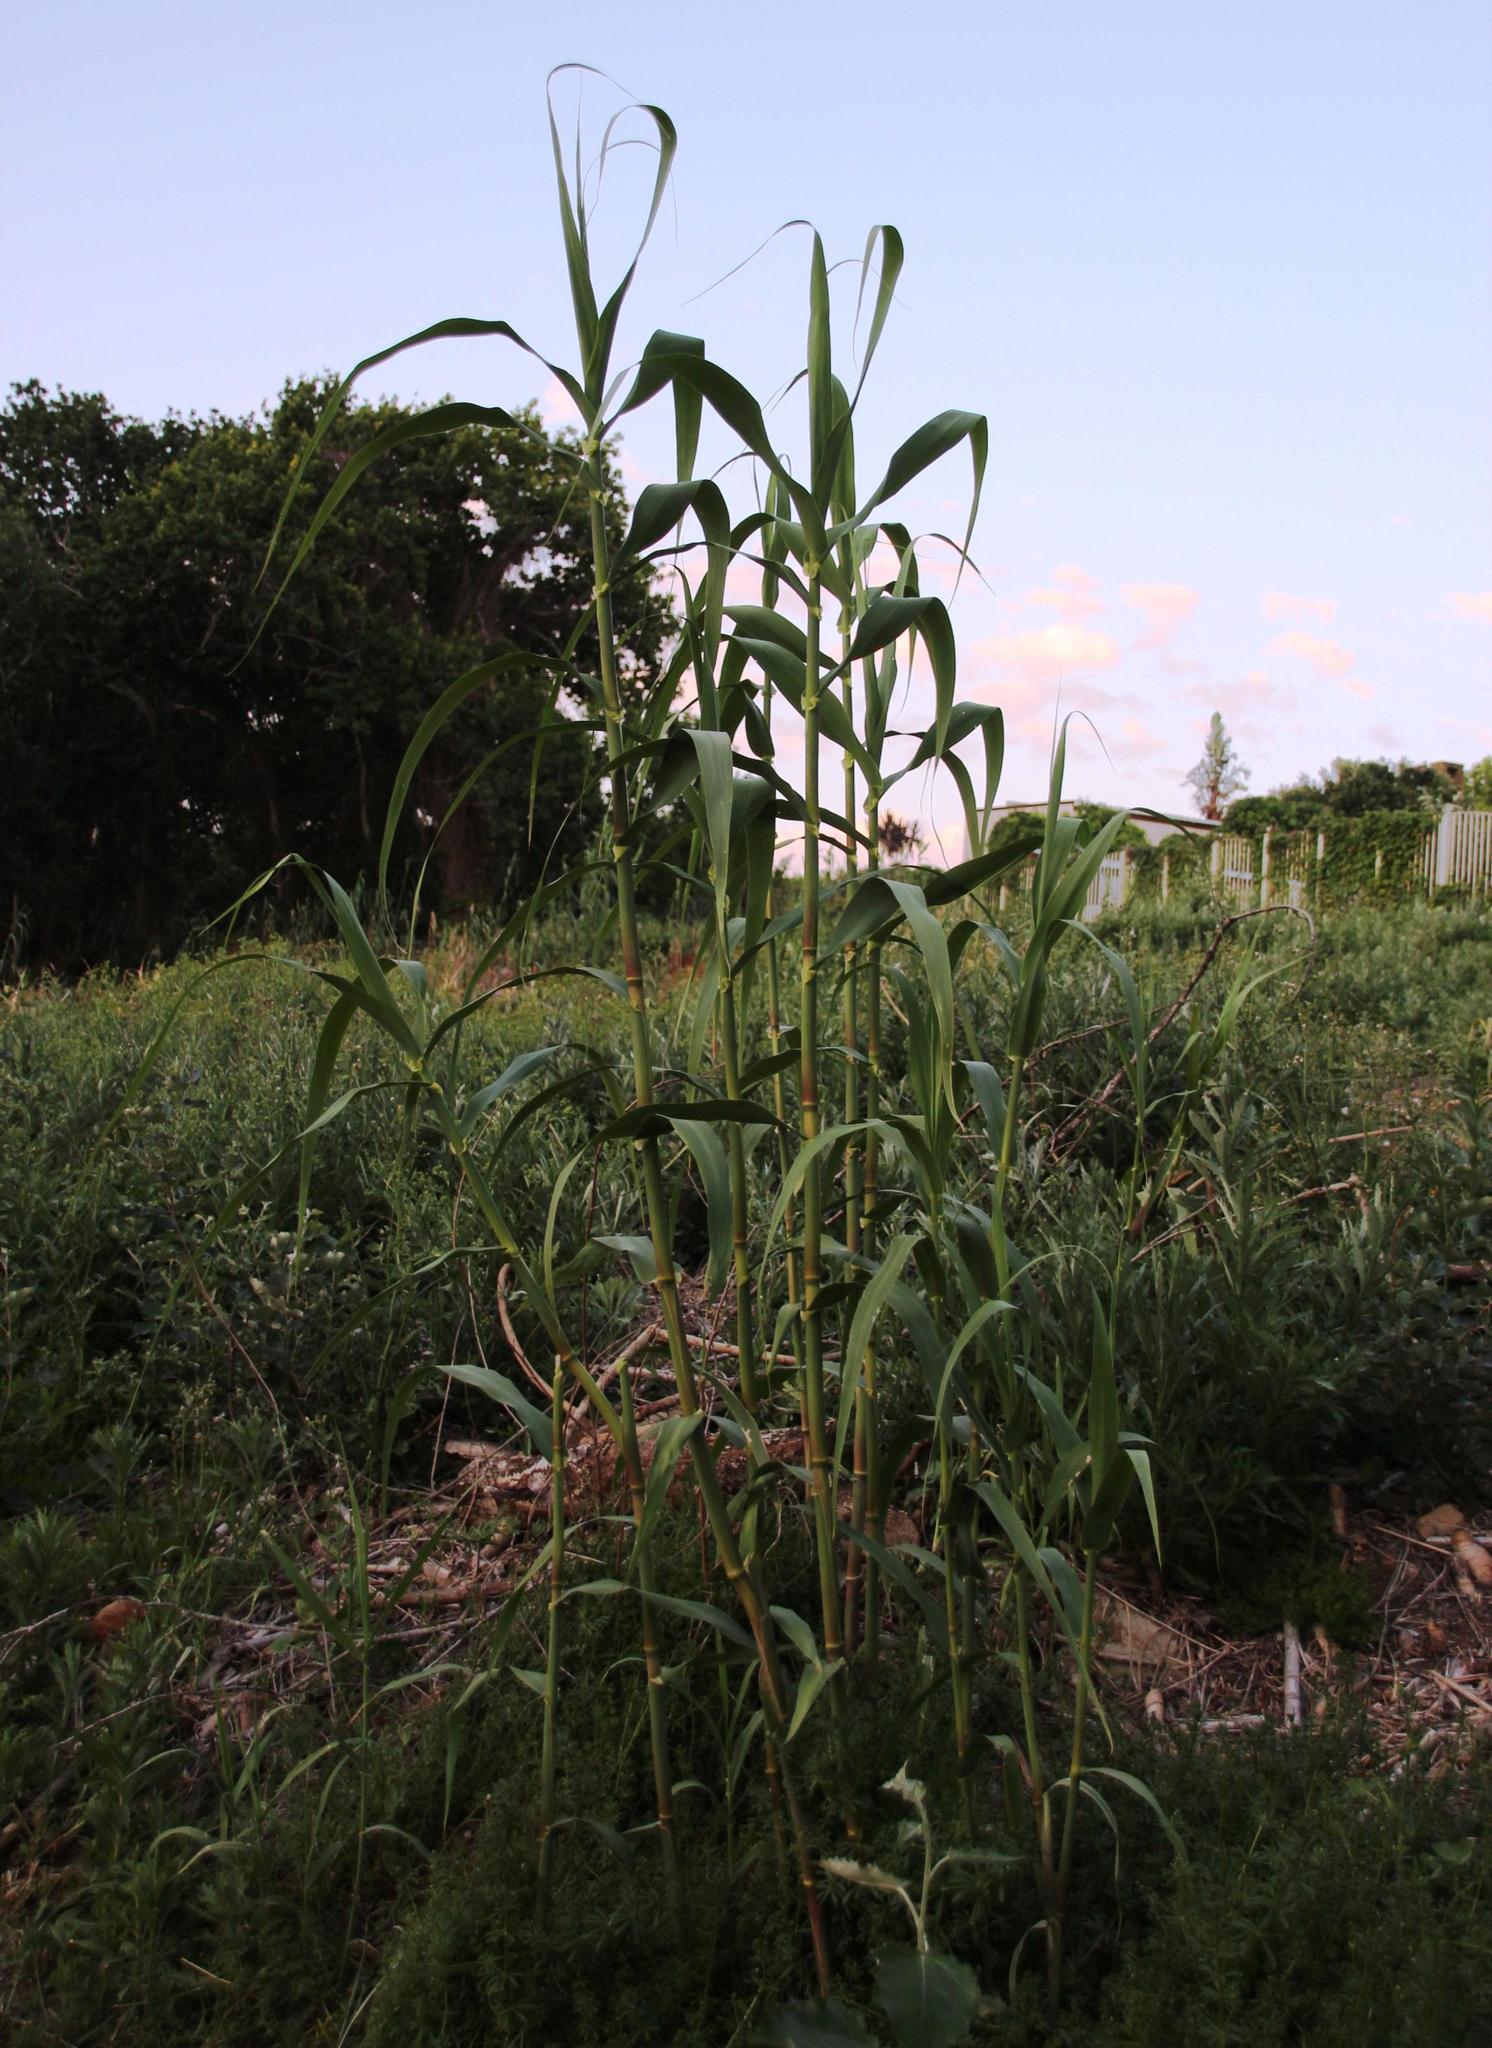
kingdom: Plantae
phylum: Tracheophyta
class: Liliopsida
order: Poales
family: Poaceae
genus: Arundo
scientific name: Arundo donax
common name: Giant reed
